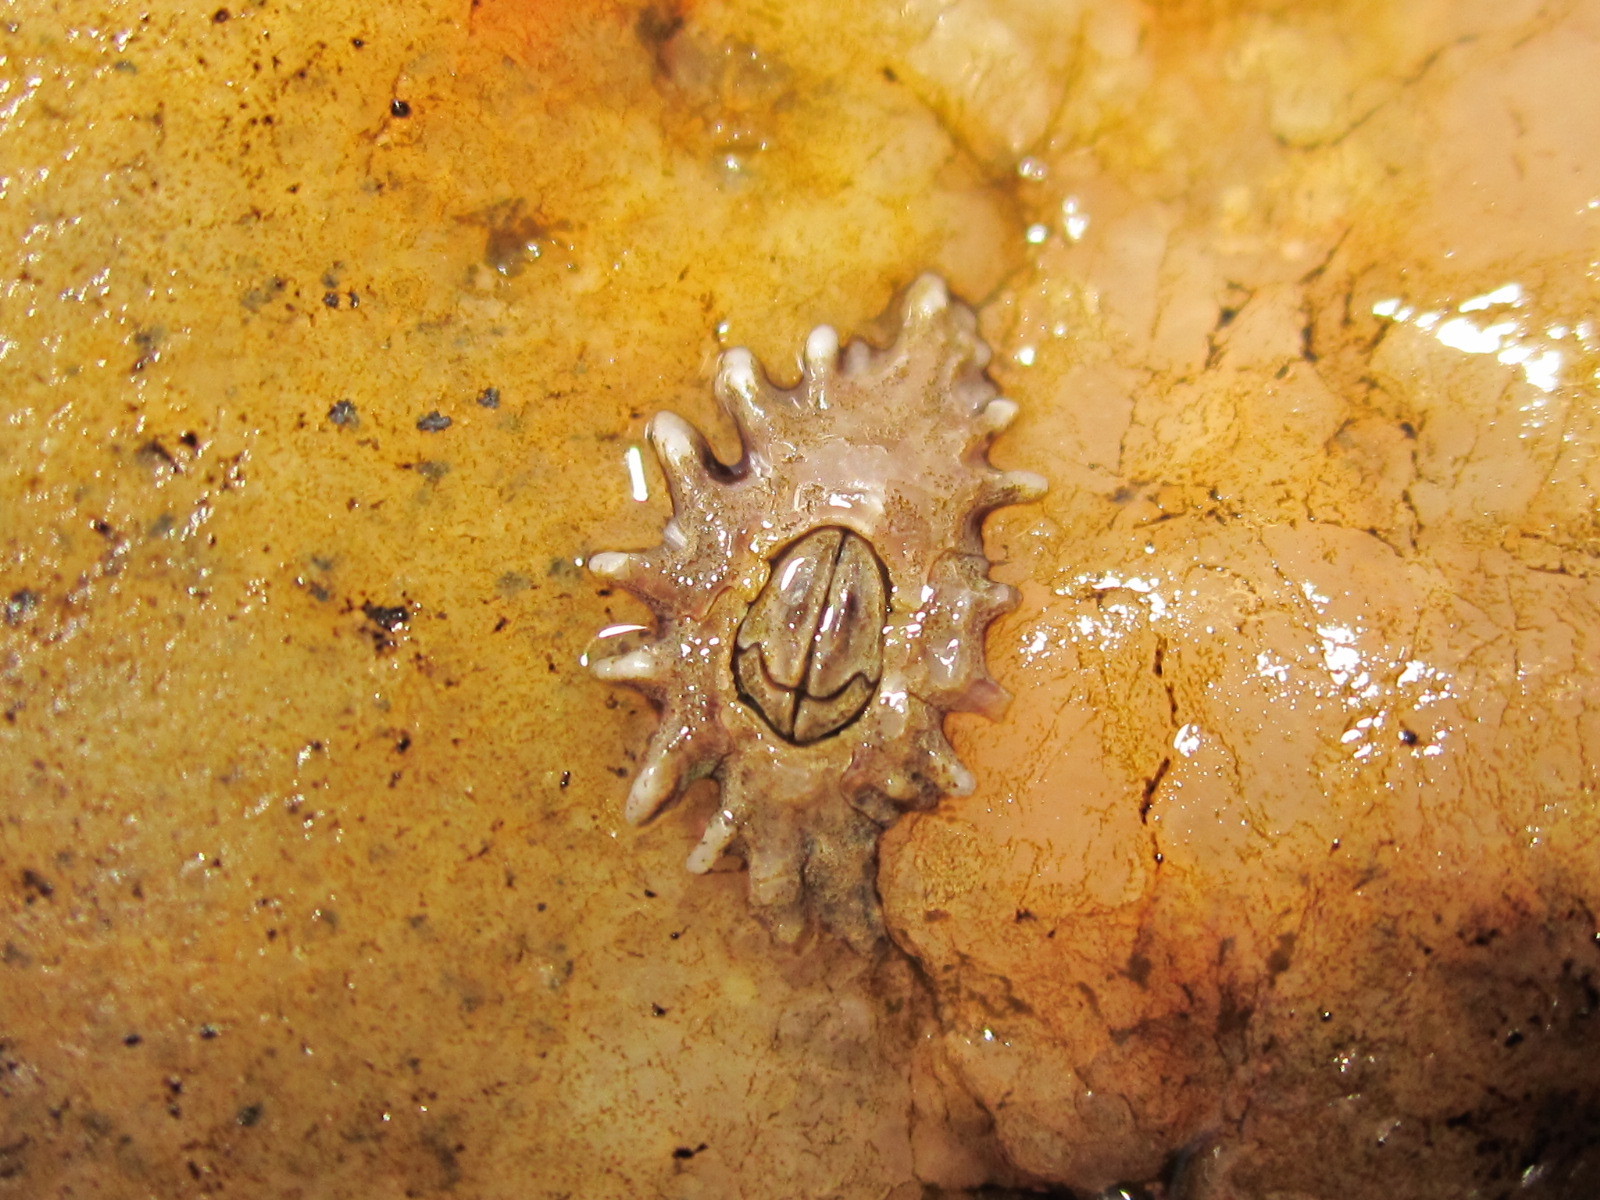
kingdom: Animalia
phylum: Arthropoda
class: Maxillopoda
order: Sessilia
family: Chthamalidae
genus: Jehlius
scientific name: Jehlius cirratus
